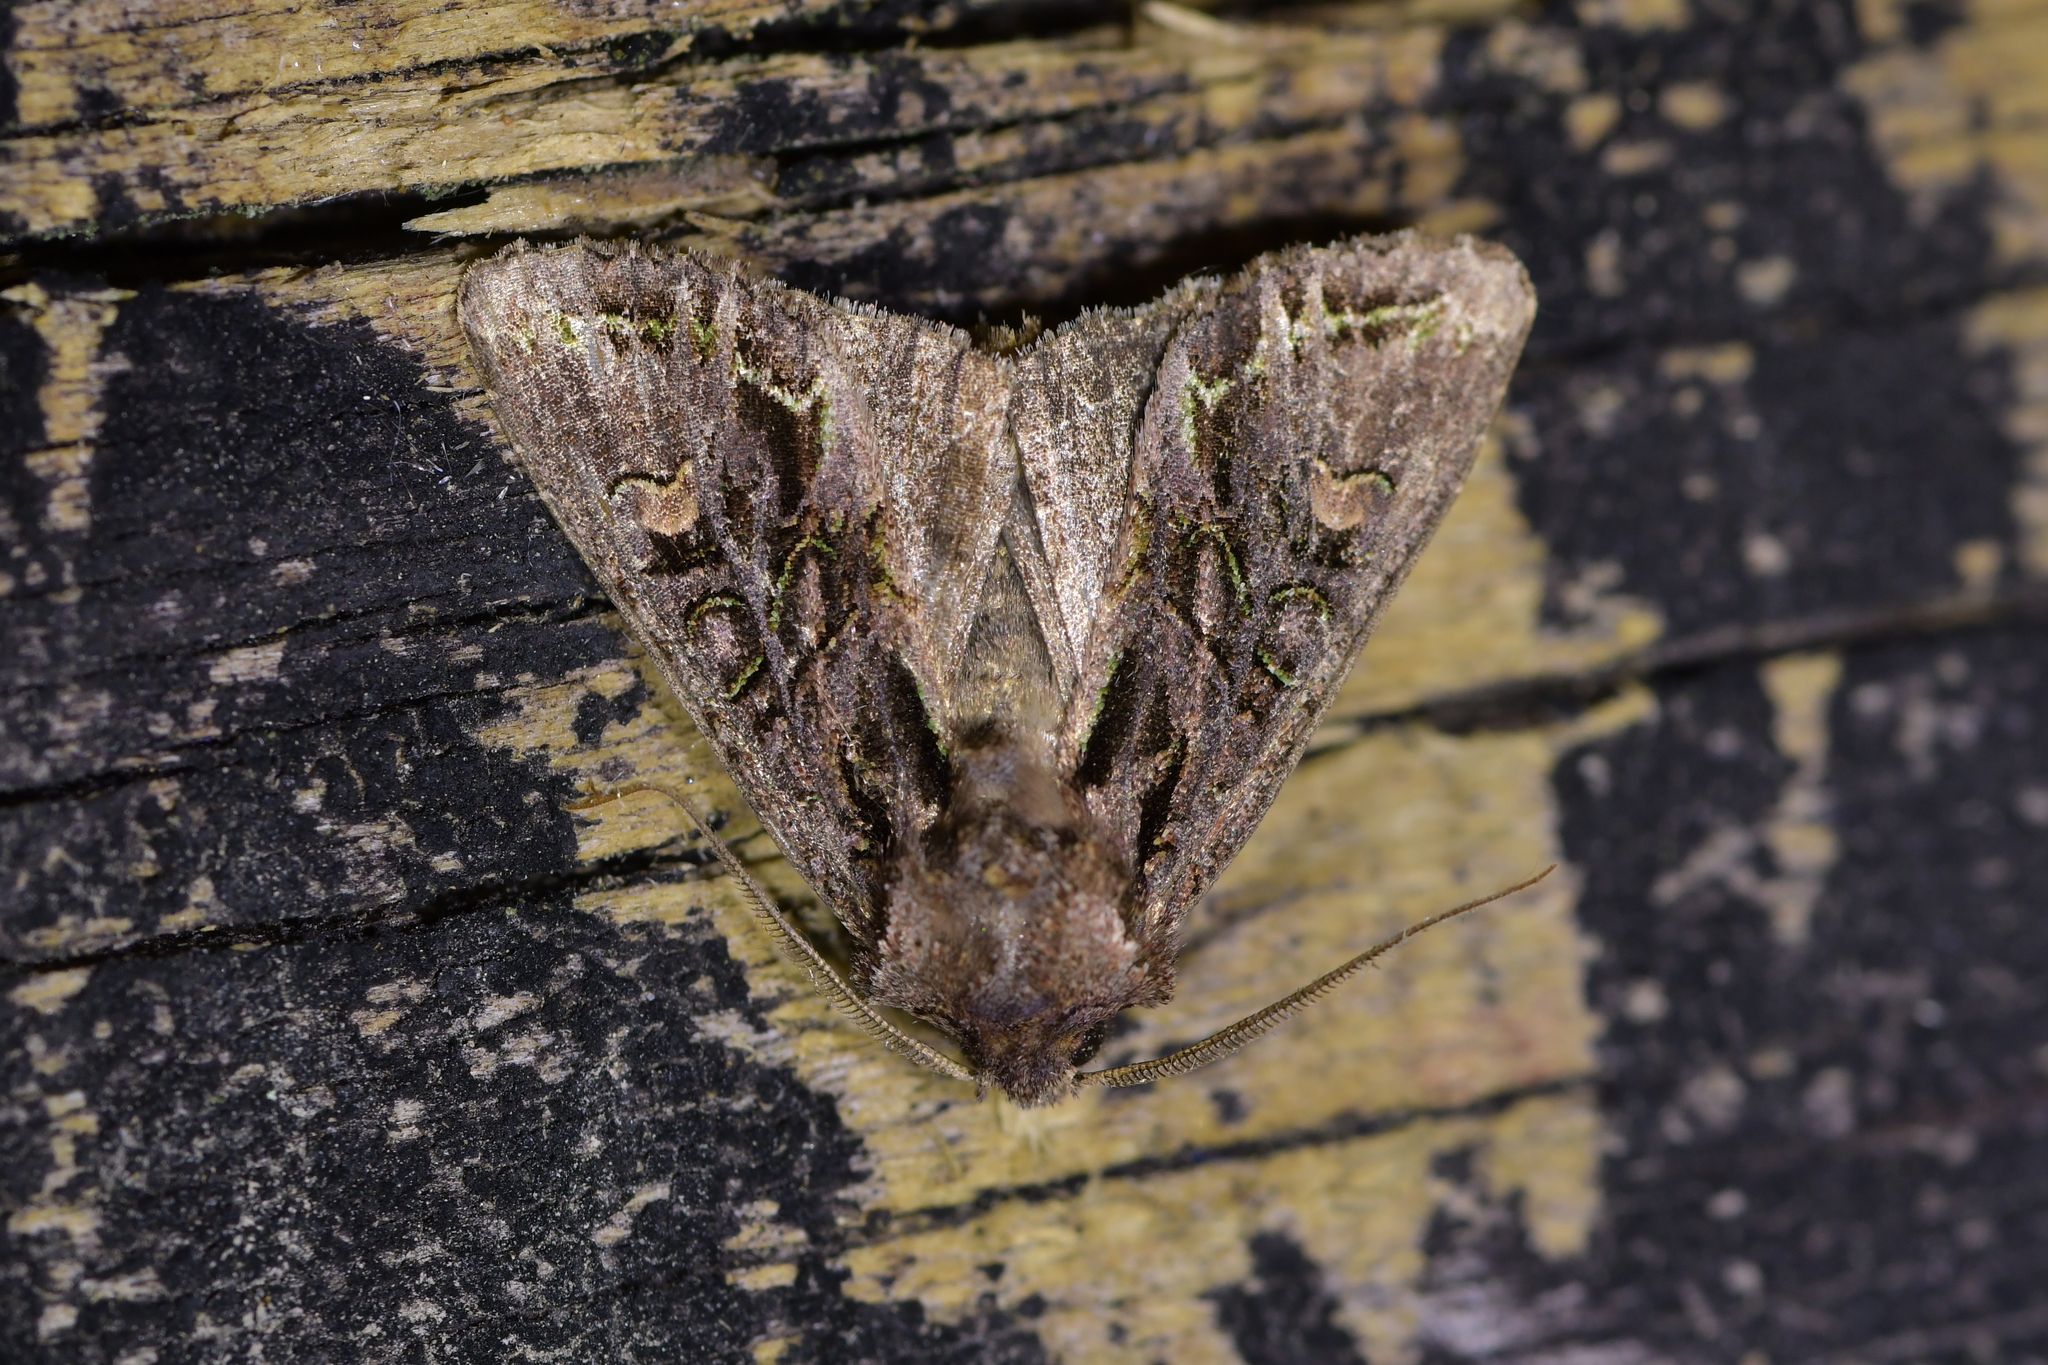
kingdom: Animalia
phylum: Arthropoda
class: Insecta
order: Lepidoptera
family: Noctuidae
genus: Ichneutica
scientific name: Ichneutica insignis
